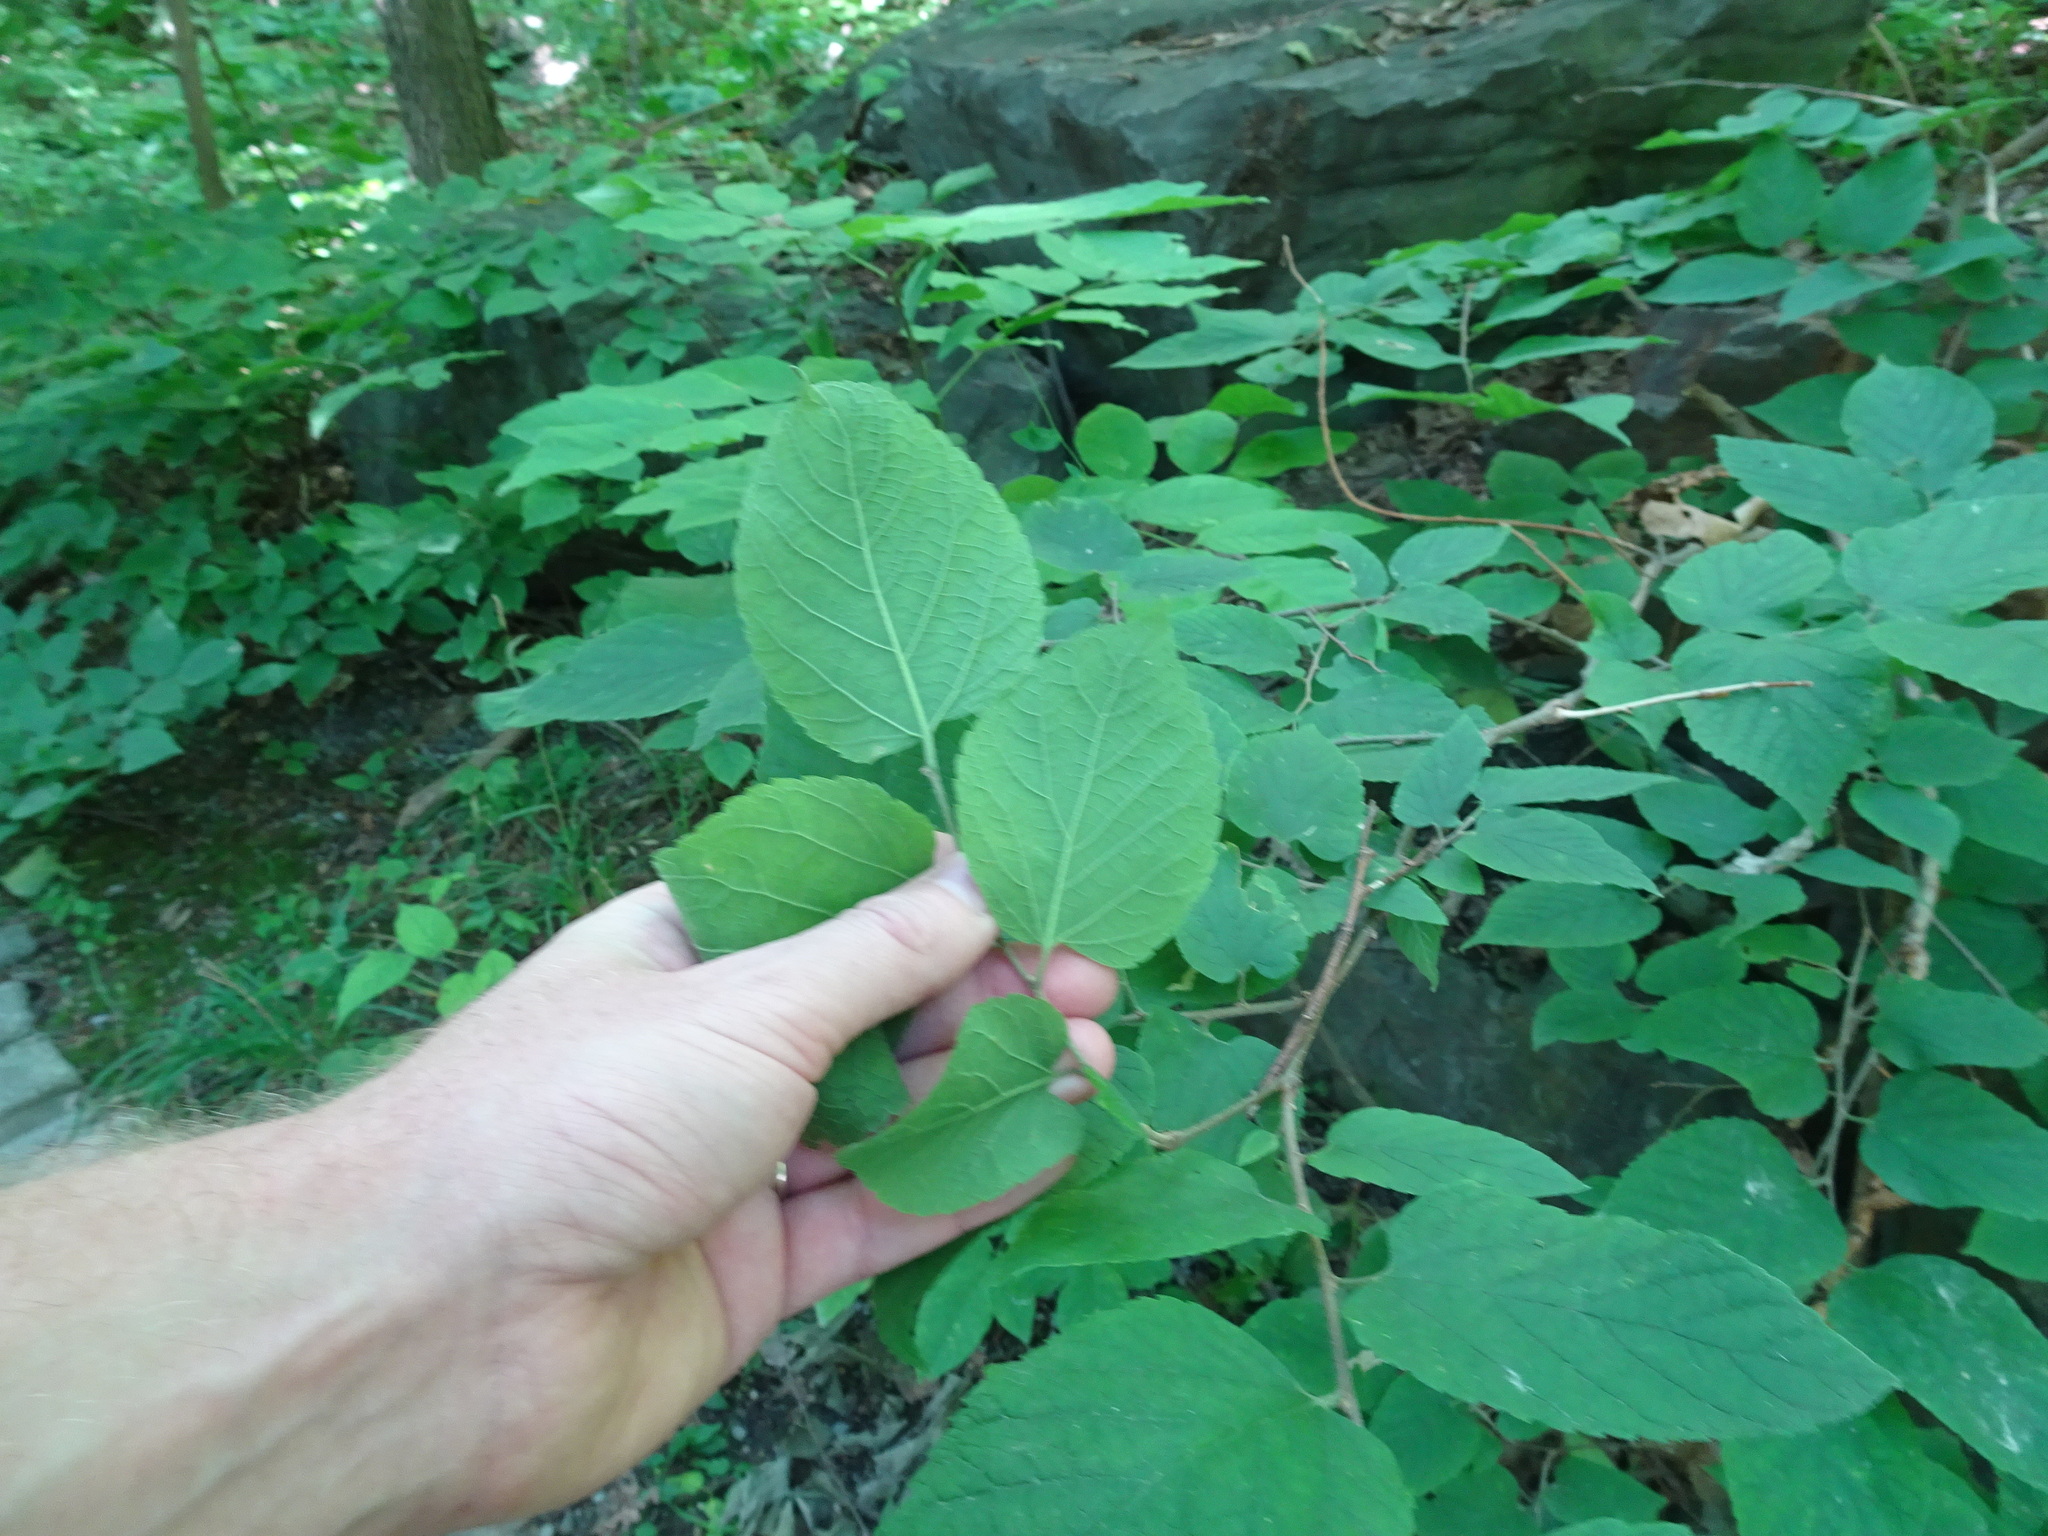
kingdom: Plantae
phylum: Tracheophyta
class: Magnoliopsida
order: Rosales
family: Cannabaceae
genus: Celtis
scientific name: Celtis occidentalis
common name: Common hackberry
